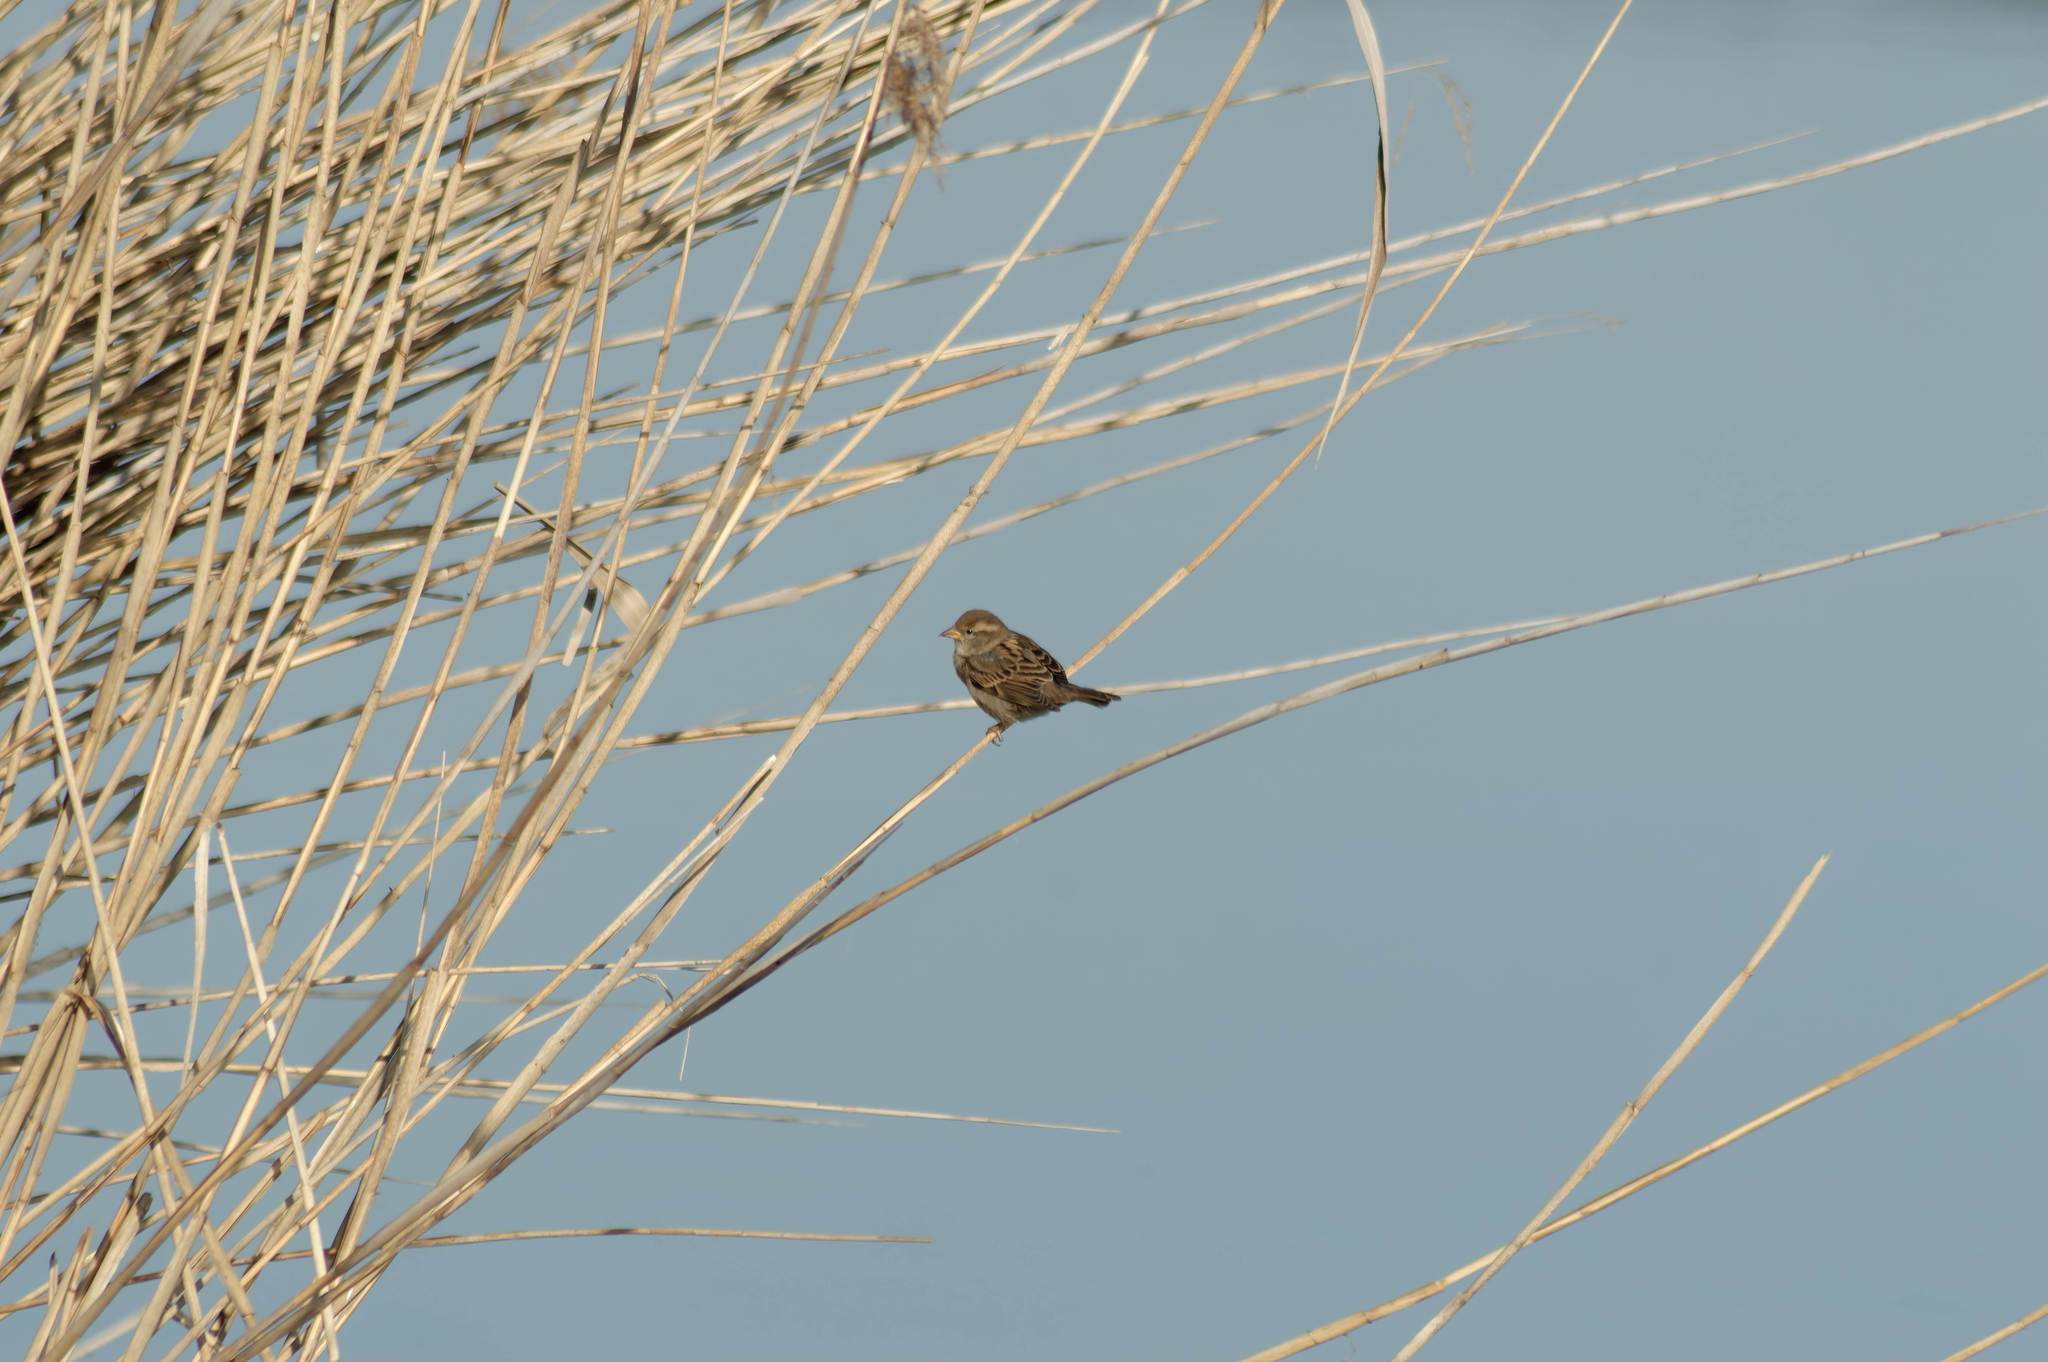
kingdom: Animalia
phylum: Chordata
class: Aves
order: Passeriformes
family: Passeridae
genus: Passer
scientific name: Passer domesticus
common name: House sparrow
